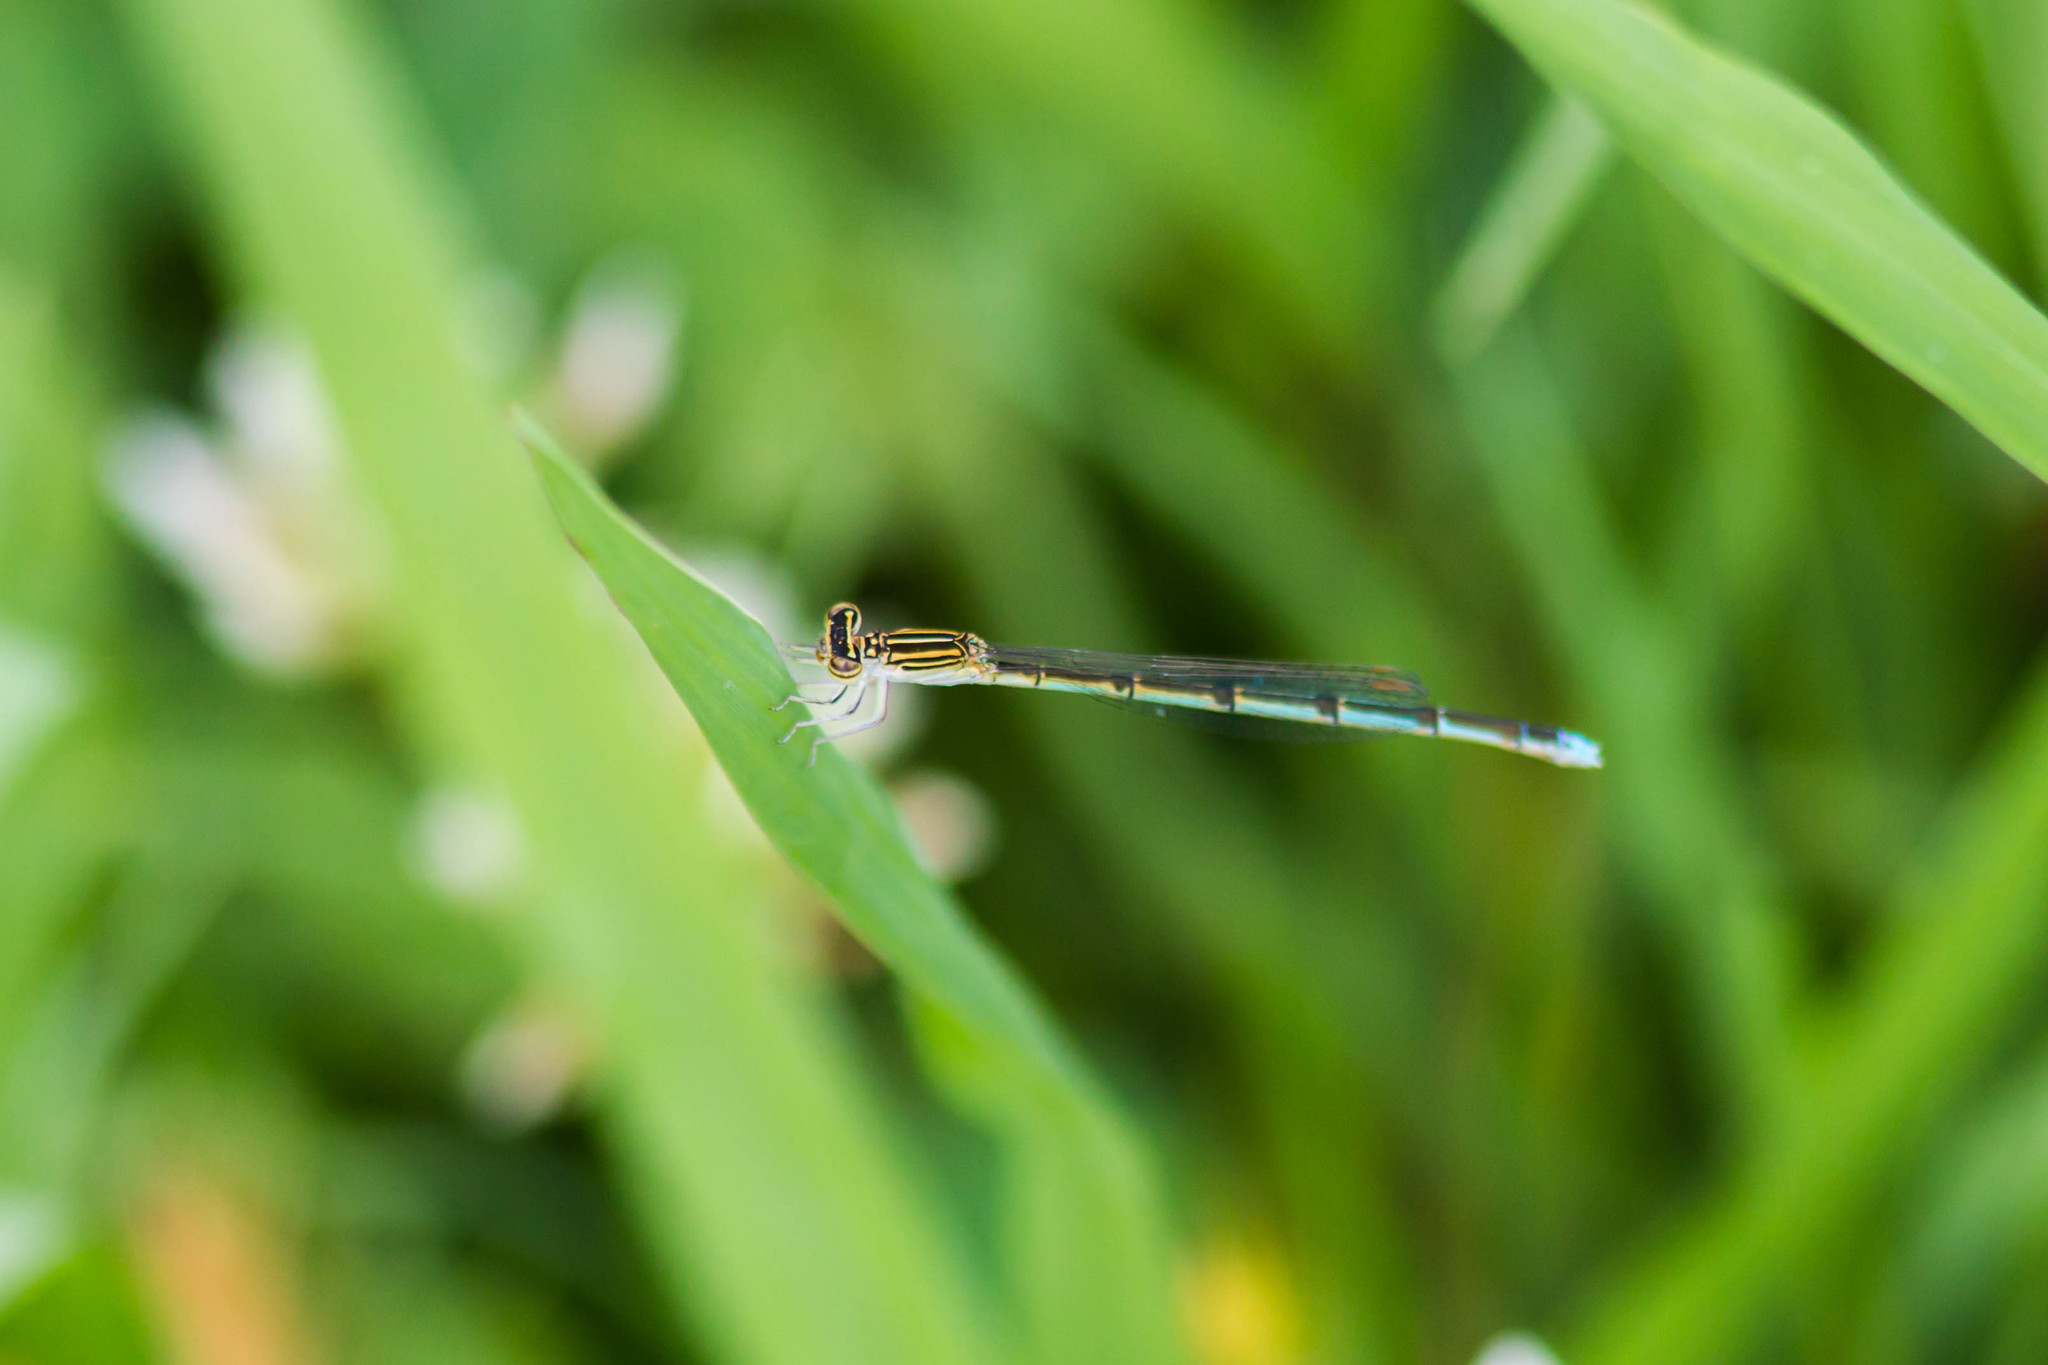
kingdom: Animalia
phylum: Arthropoda
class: Insecta
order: Odonata
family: Coenagrionidae
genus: Enallagma
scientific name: Enallagma basidens
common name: Double-striped bluet
